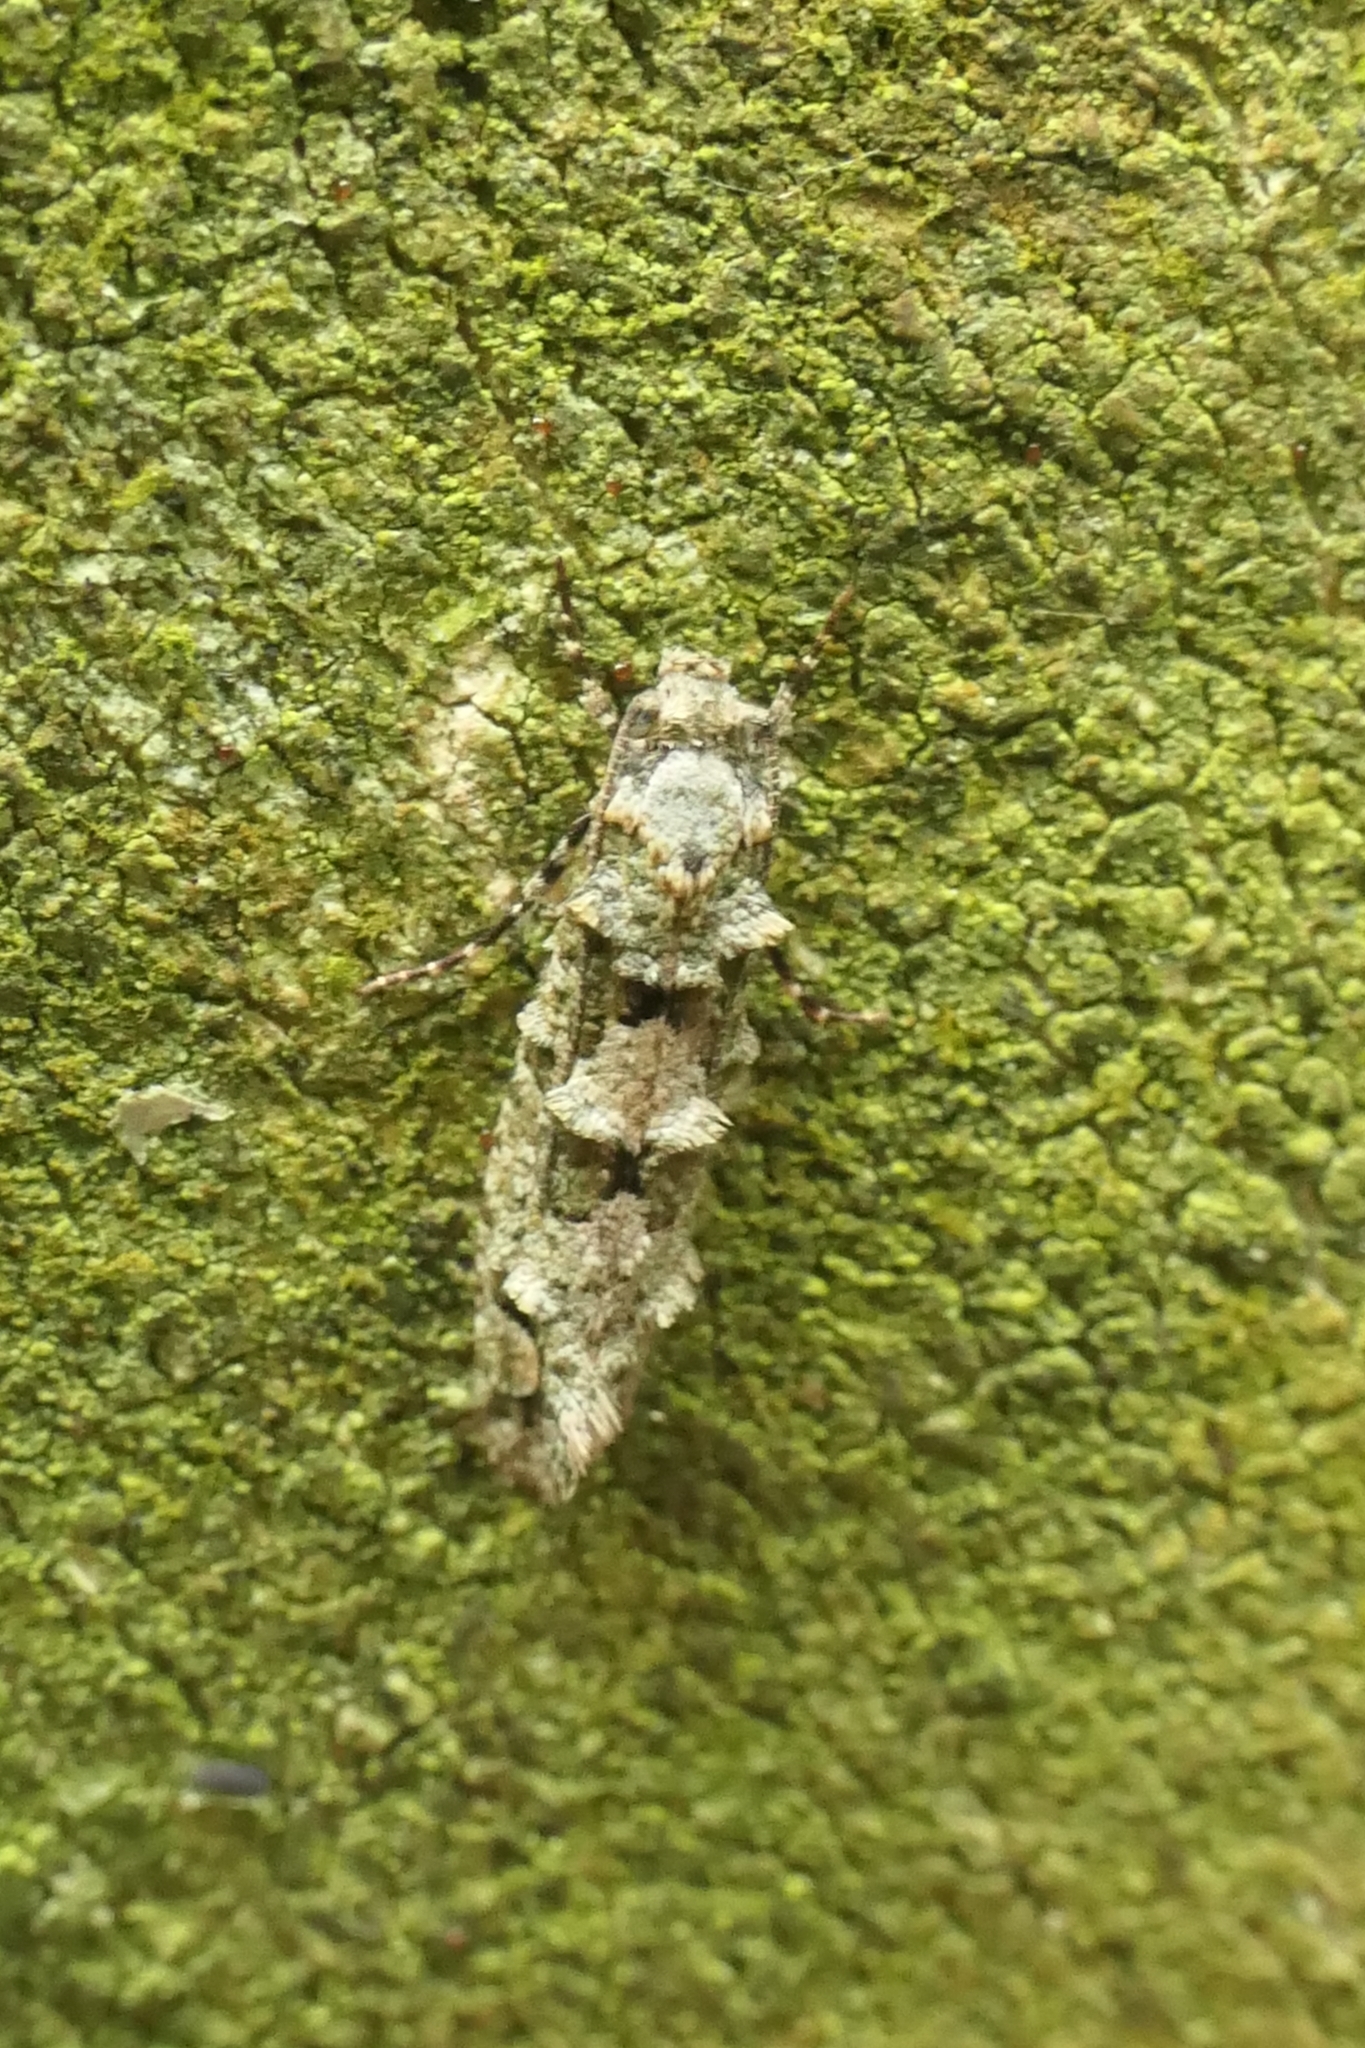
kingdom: Animalia
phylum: Arthropoda
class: Insecta
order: Lepidoptera
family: Tineidae
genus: Lysiphragma
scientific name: Lysiphragma howesii
